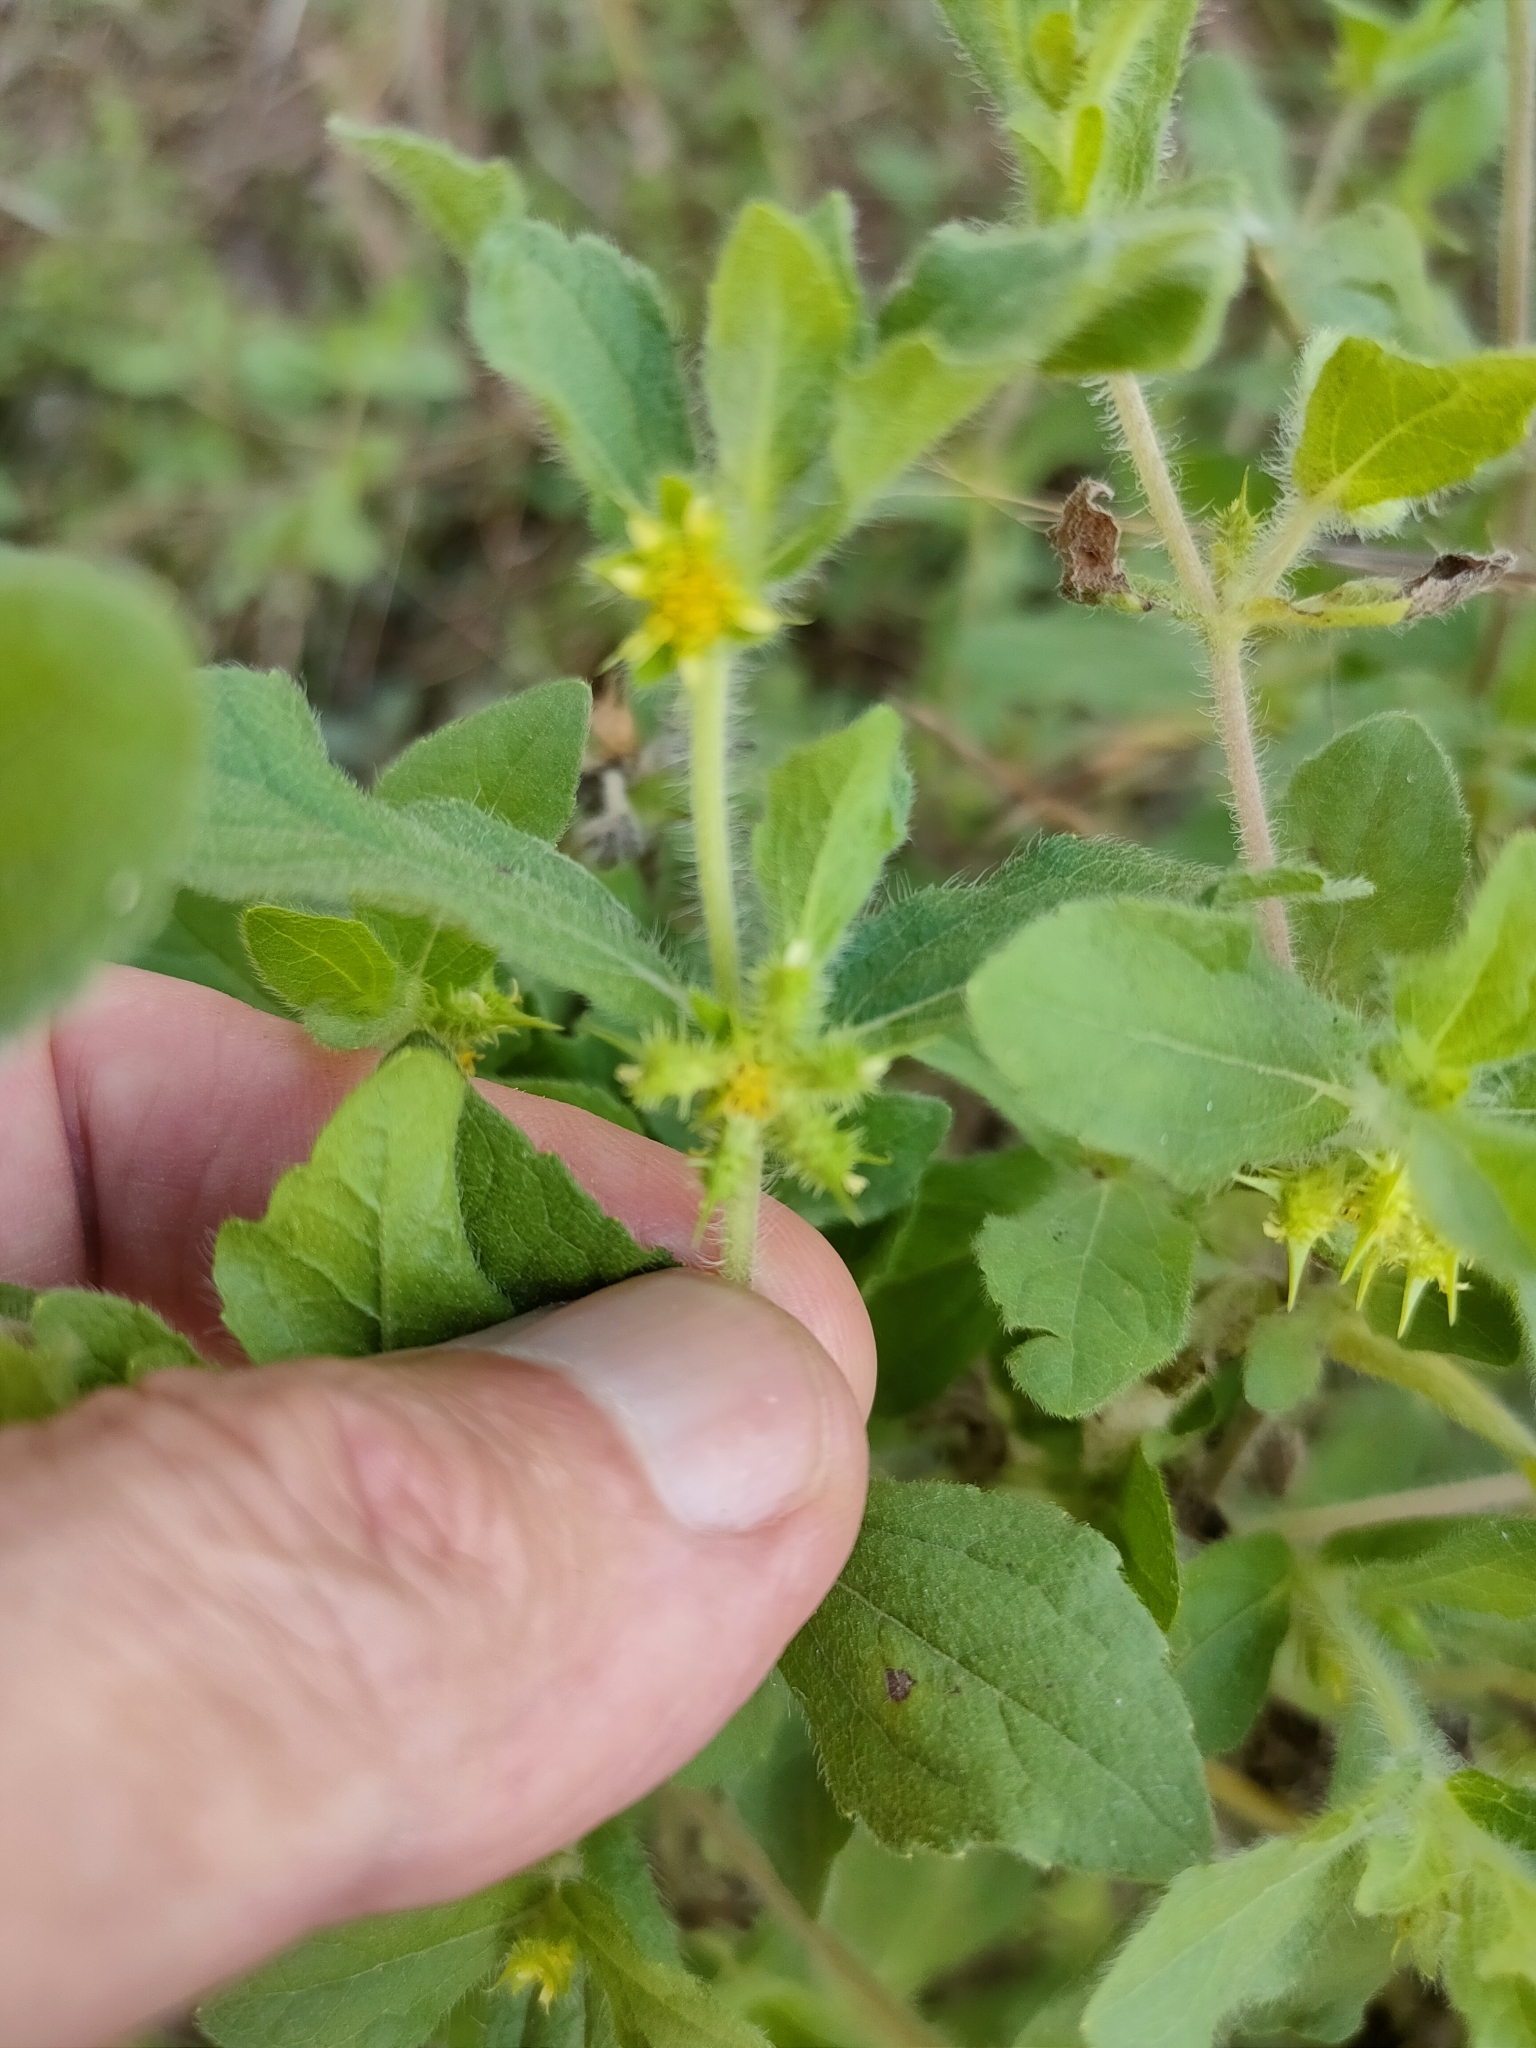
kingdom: Plantae
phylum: Tracheophyta
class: Magnoliopsida
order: Asterales
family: Asteraceae
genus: Acanthospermum
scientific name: Acanthospermum hispidum
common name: Hispid starbur
